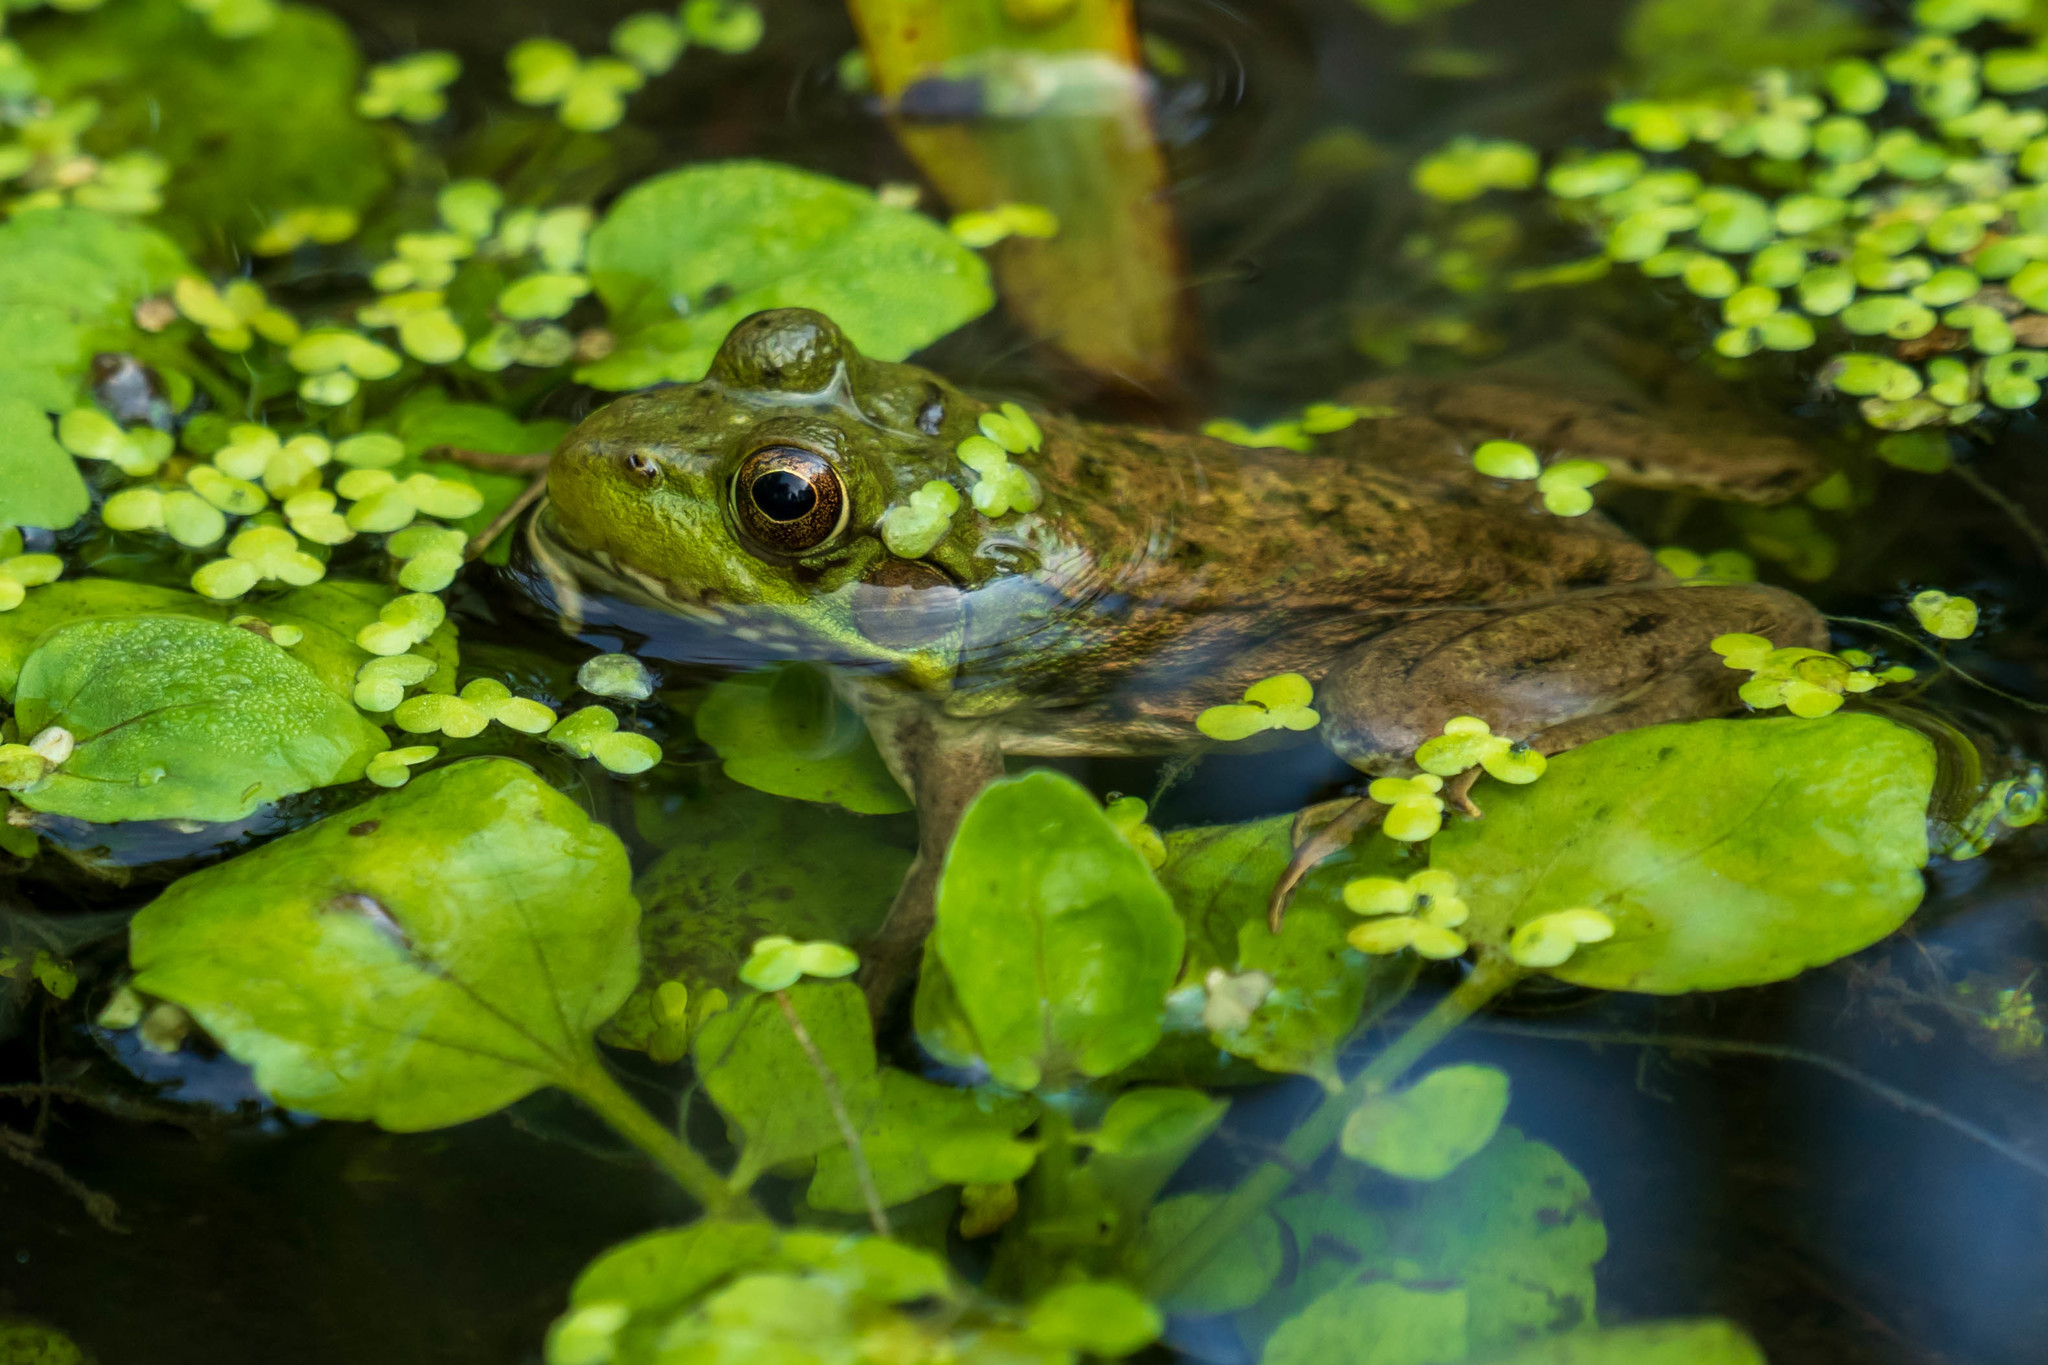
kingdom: Animalia
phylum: Chordata
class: Amphibia
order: Anura
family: Ranidae
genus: Lithobates
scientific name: Lithobates clamitans
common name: Green frog
